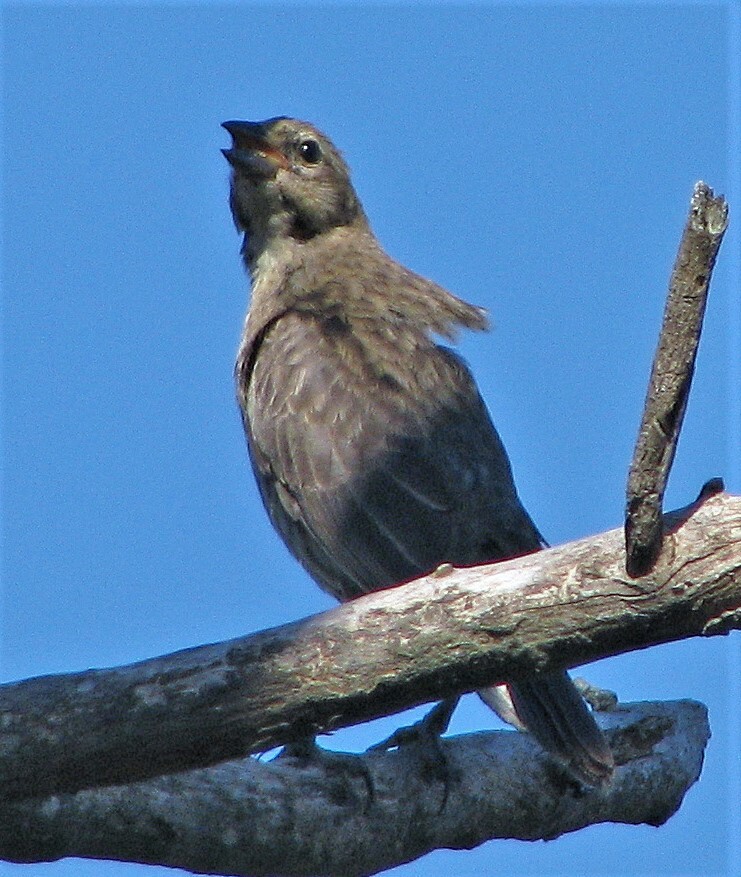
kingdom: Animalia
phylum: Chordata
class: Aves
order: Passeriformes
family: Icteridae
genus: Molothrus
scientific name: Molothrus bonariensis
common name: Shiny cowbird
